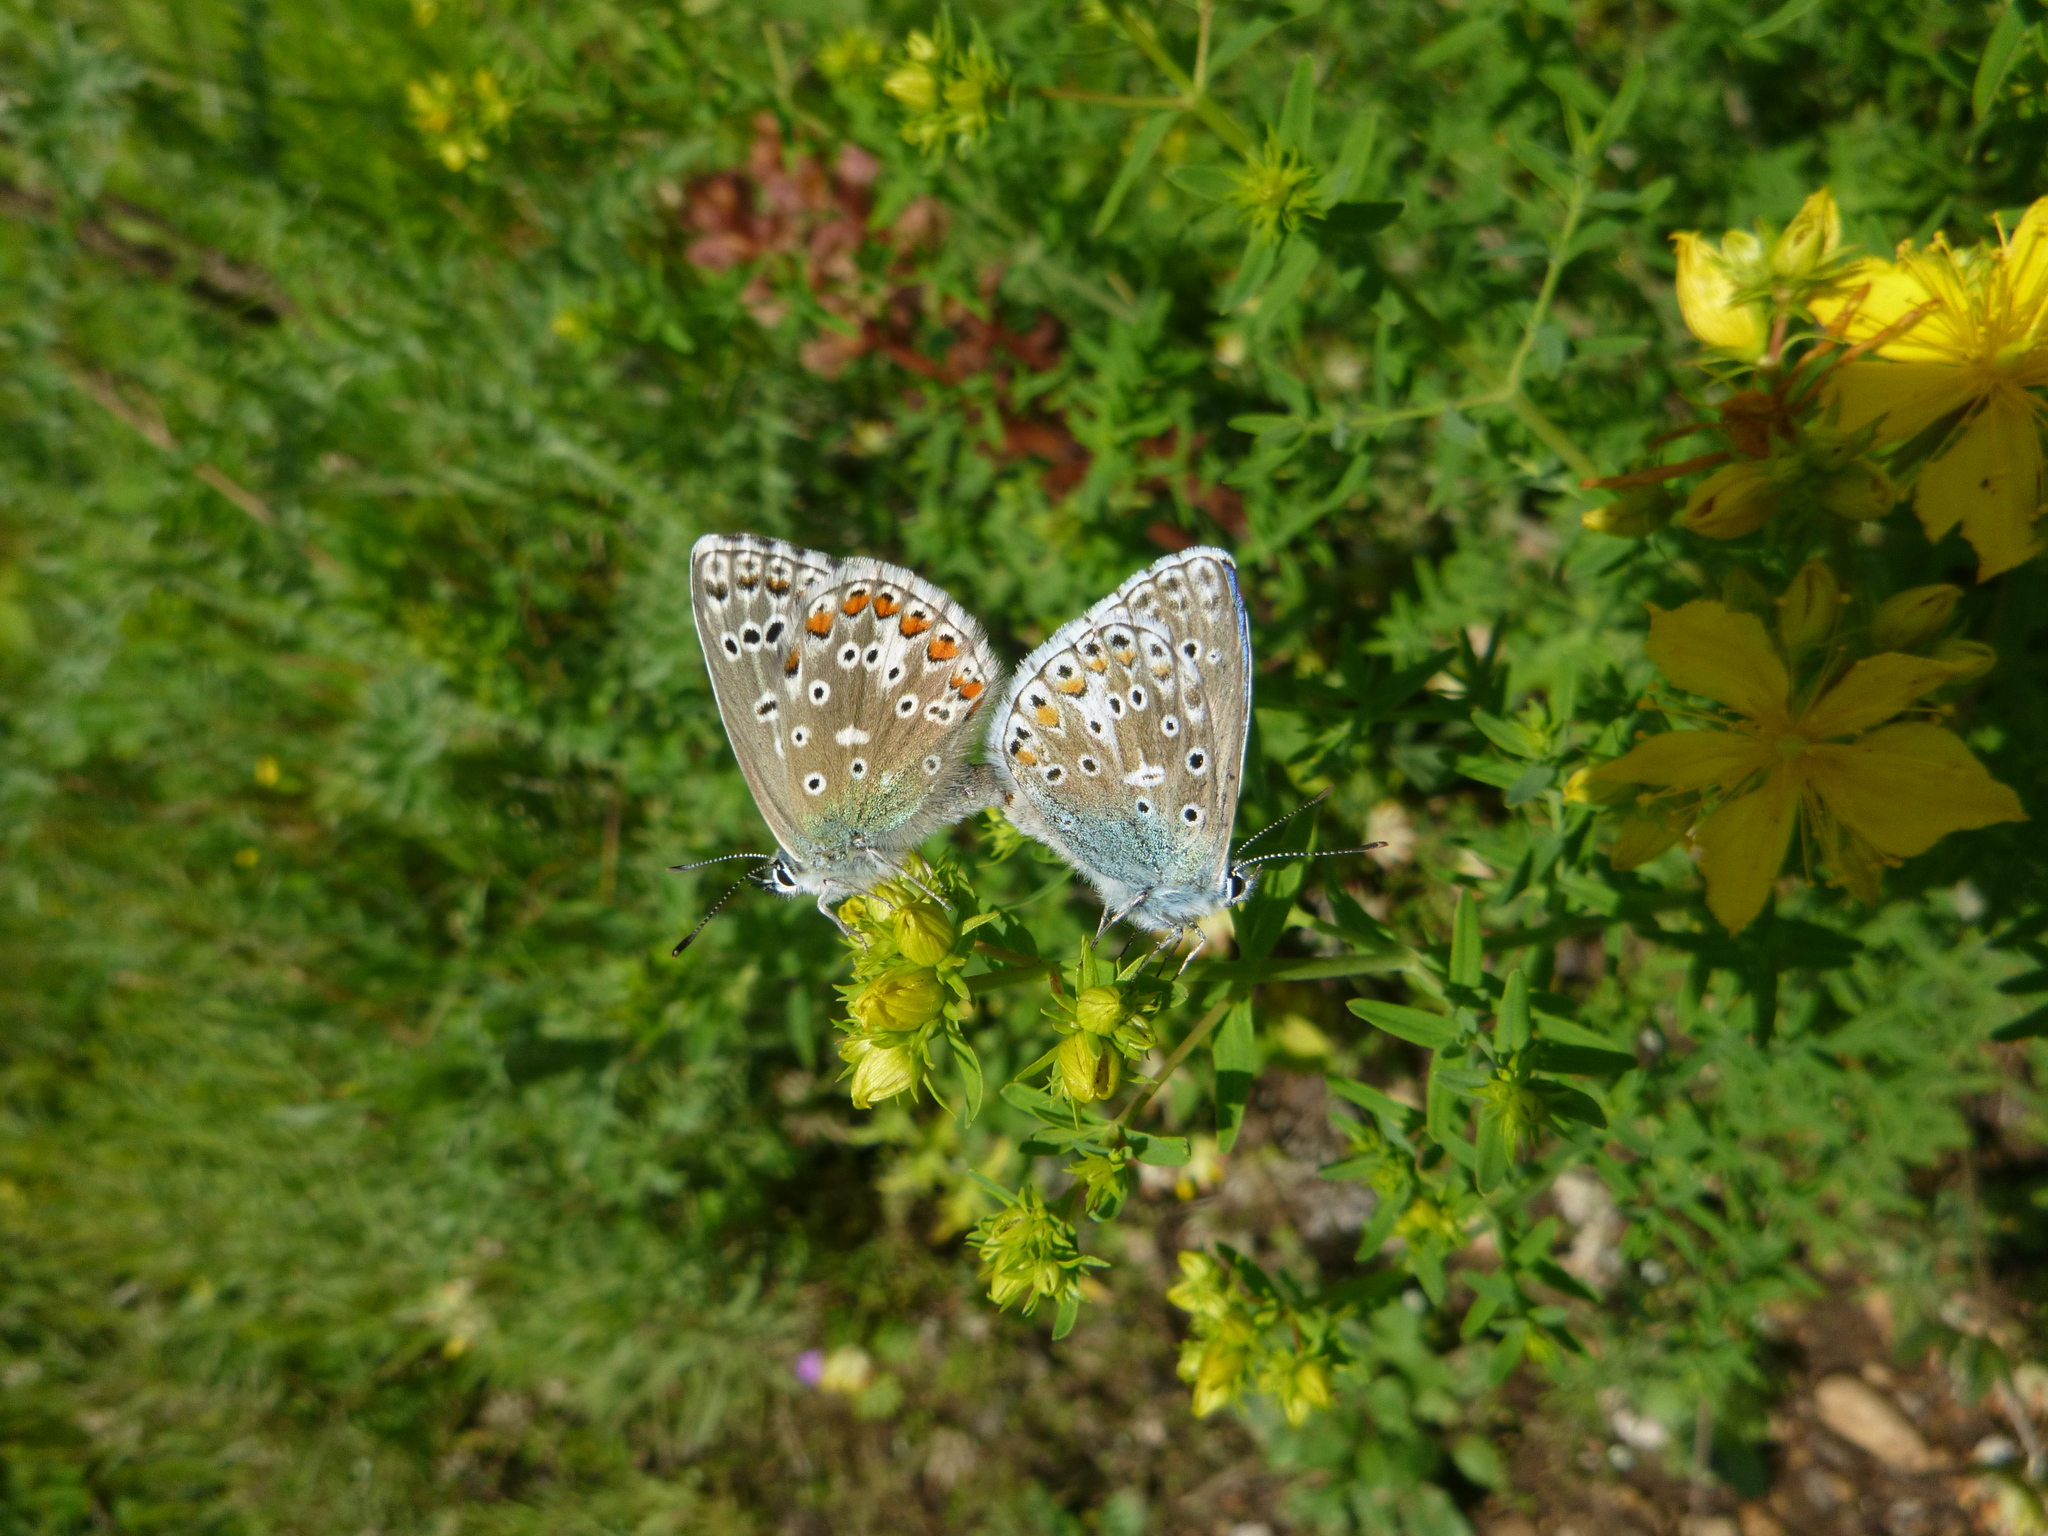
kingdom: Animalia
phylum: Arthropoda
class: Insecta
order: Lepidoptera
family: Lycaenidae
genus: Lysandra
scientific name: Lysandra bellargus
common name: Adonis blue
